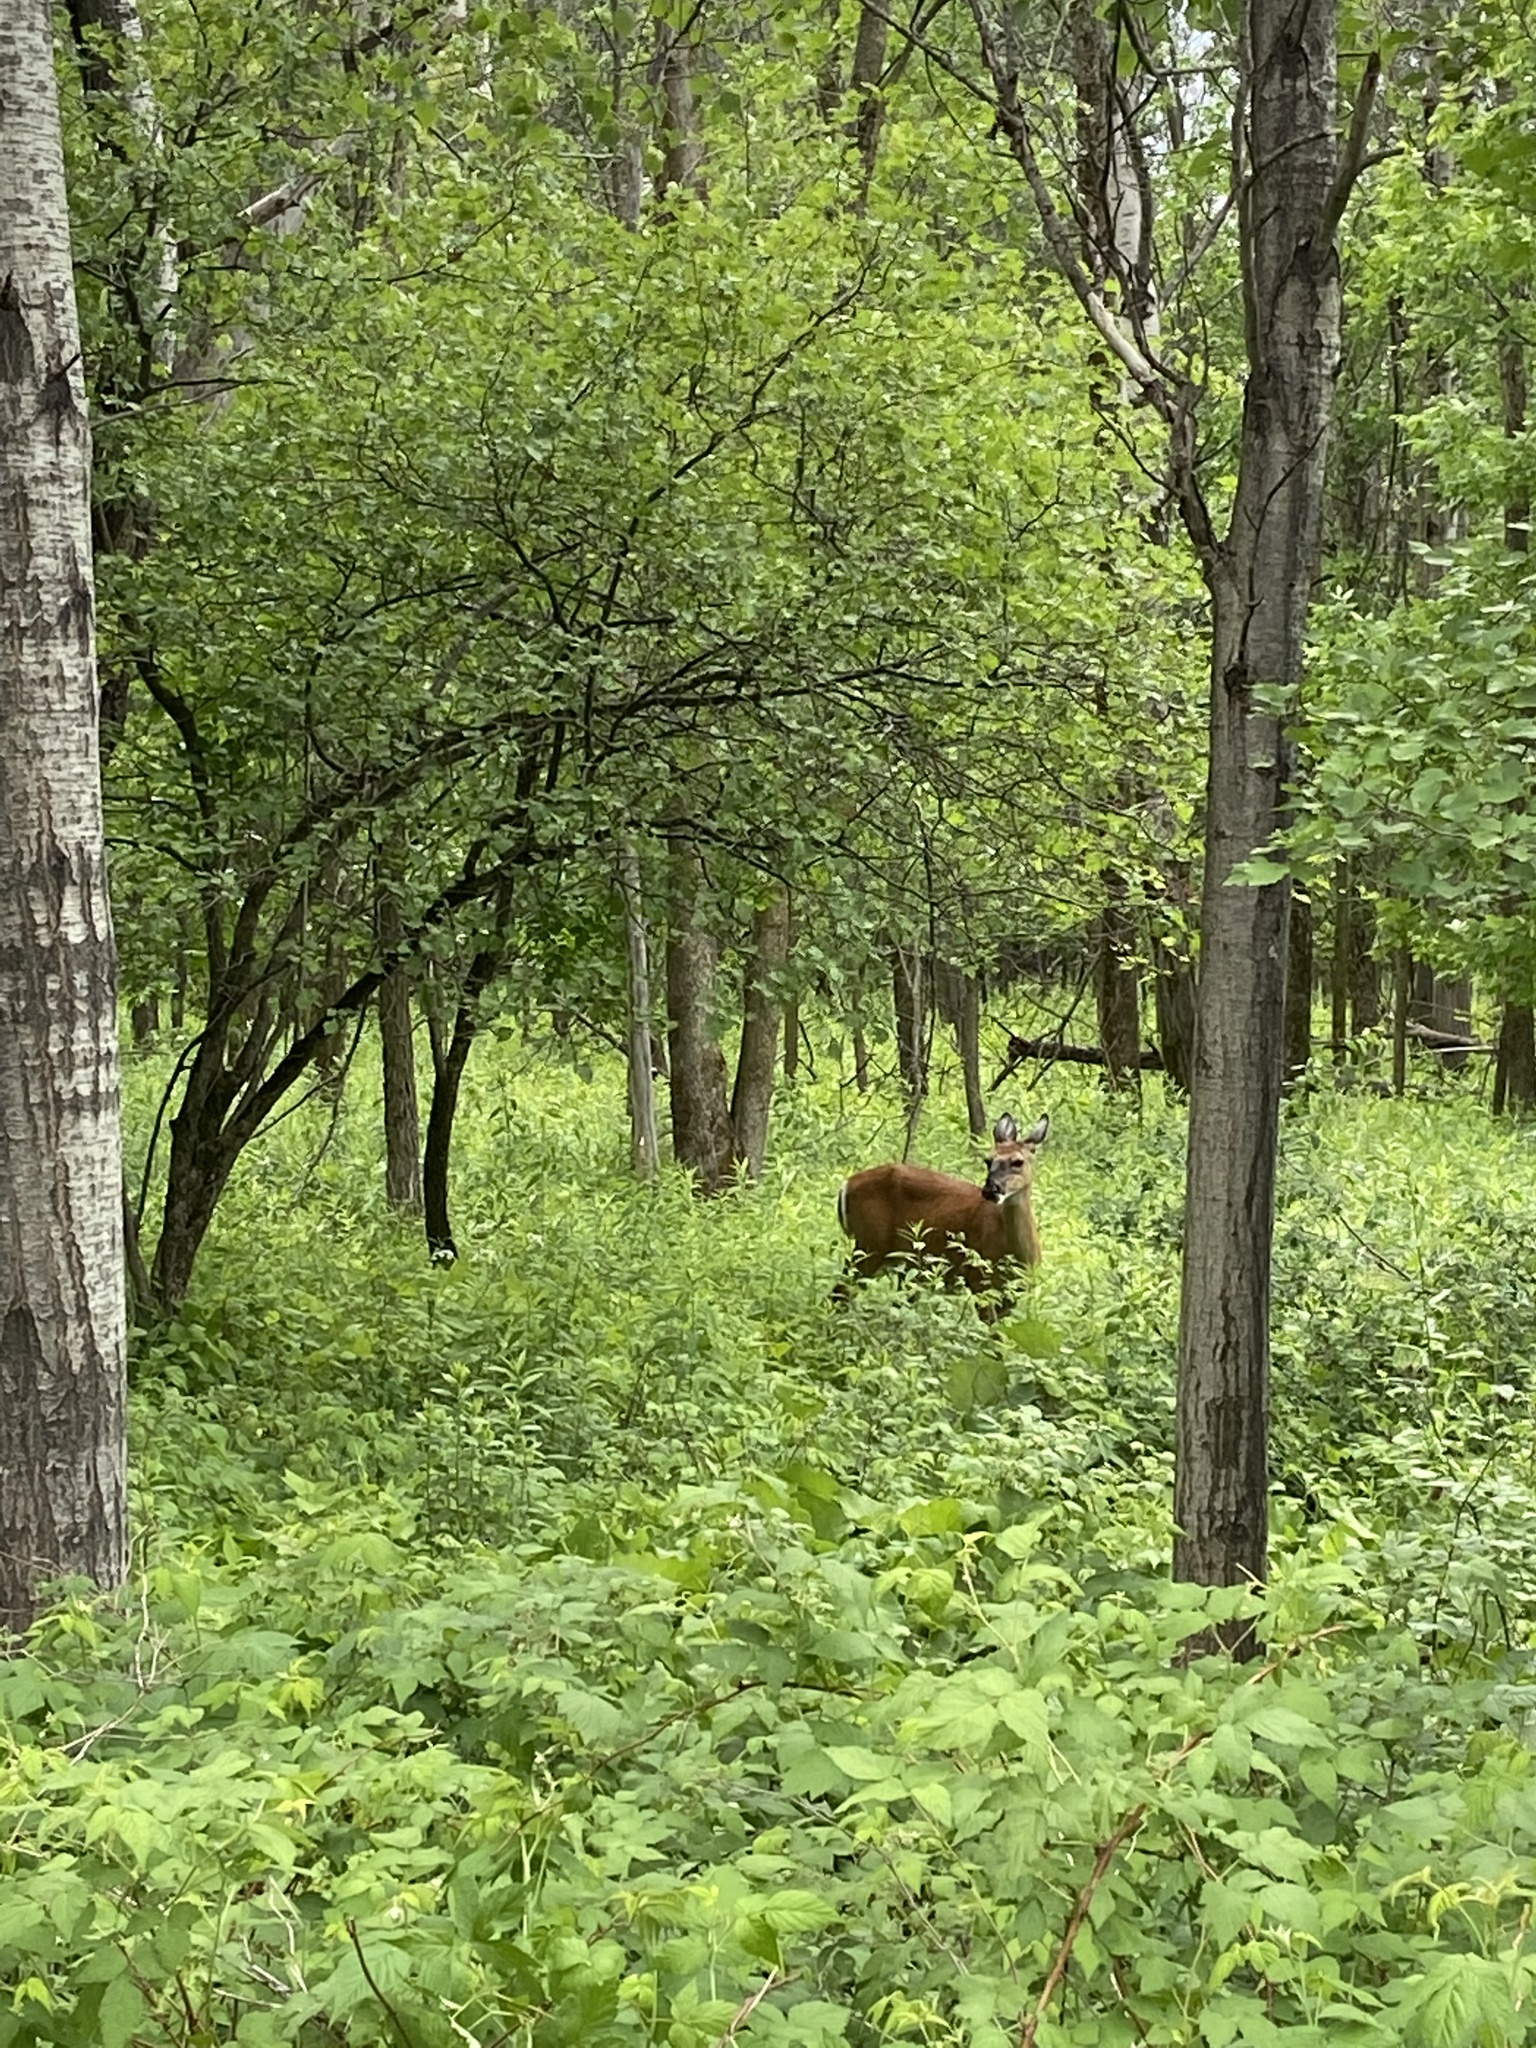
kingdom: Animalia
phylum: Chordata
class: Mammalia
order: Artiodactyla
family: Cervidae
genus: Odocoileus
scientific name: Odocoileus virginianus
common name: White-tailed deer
